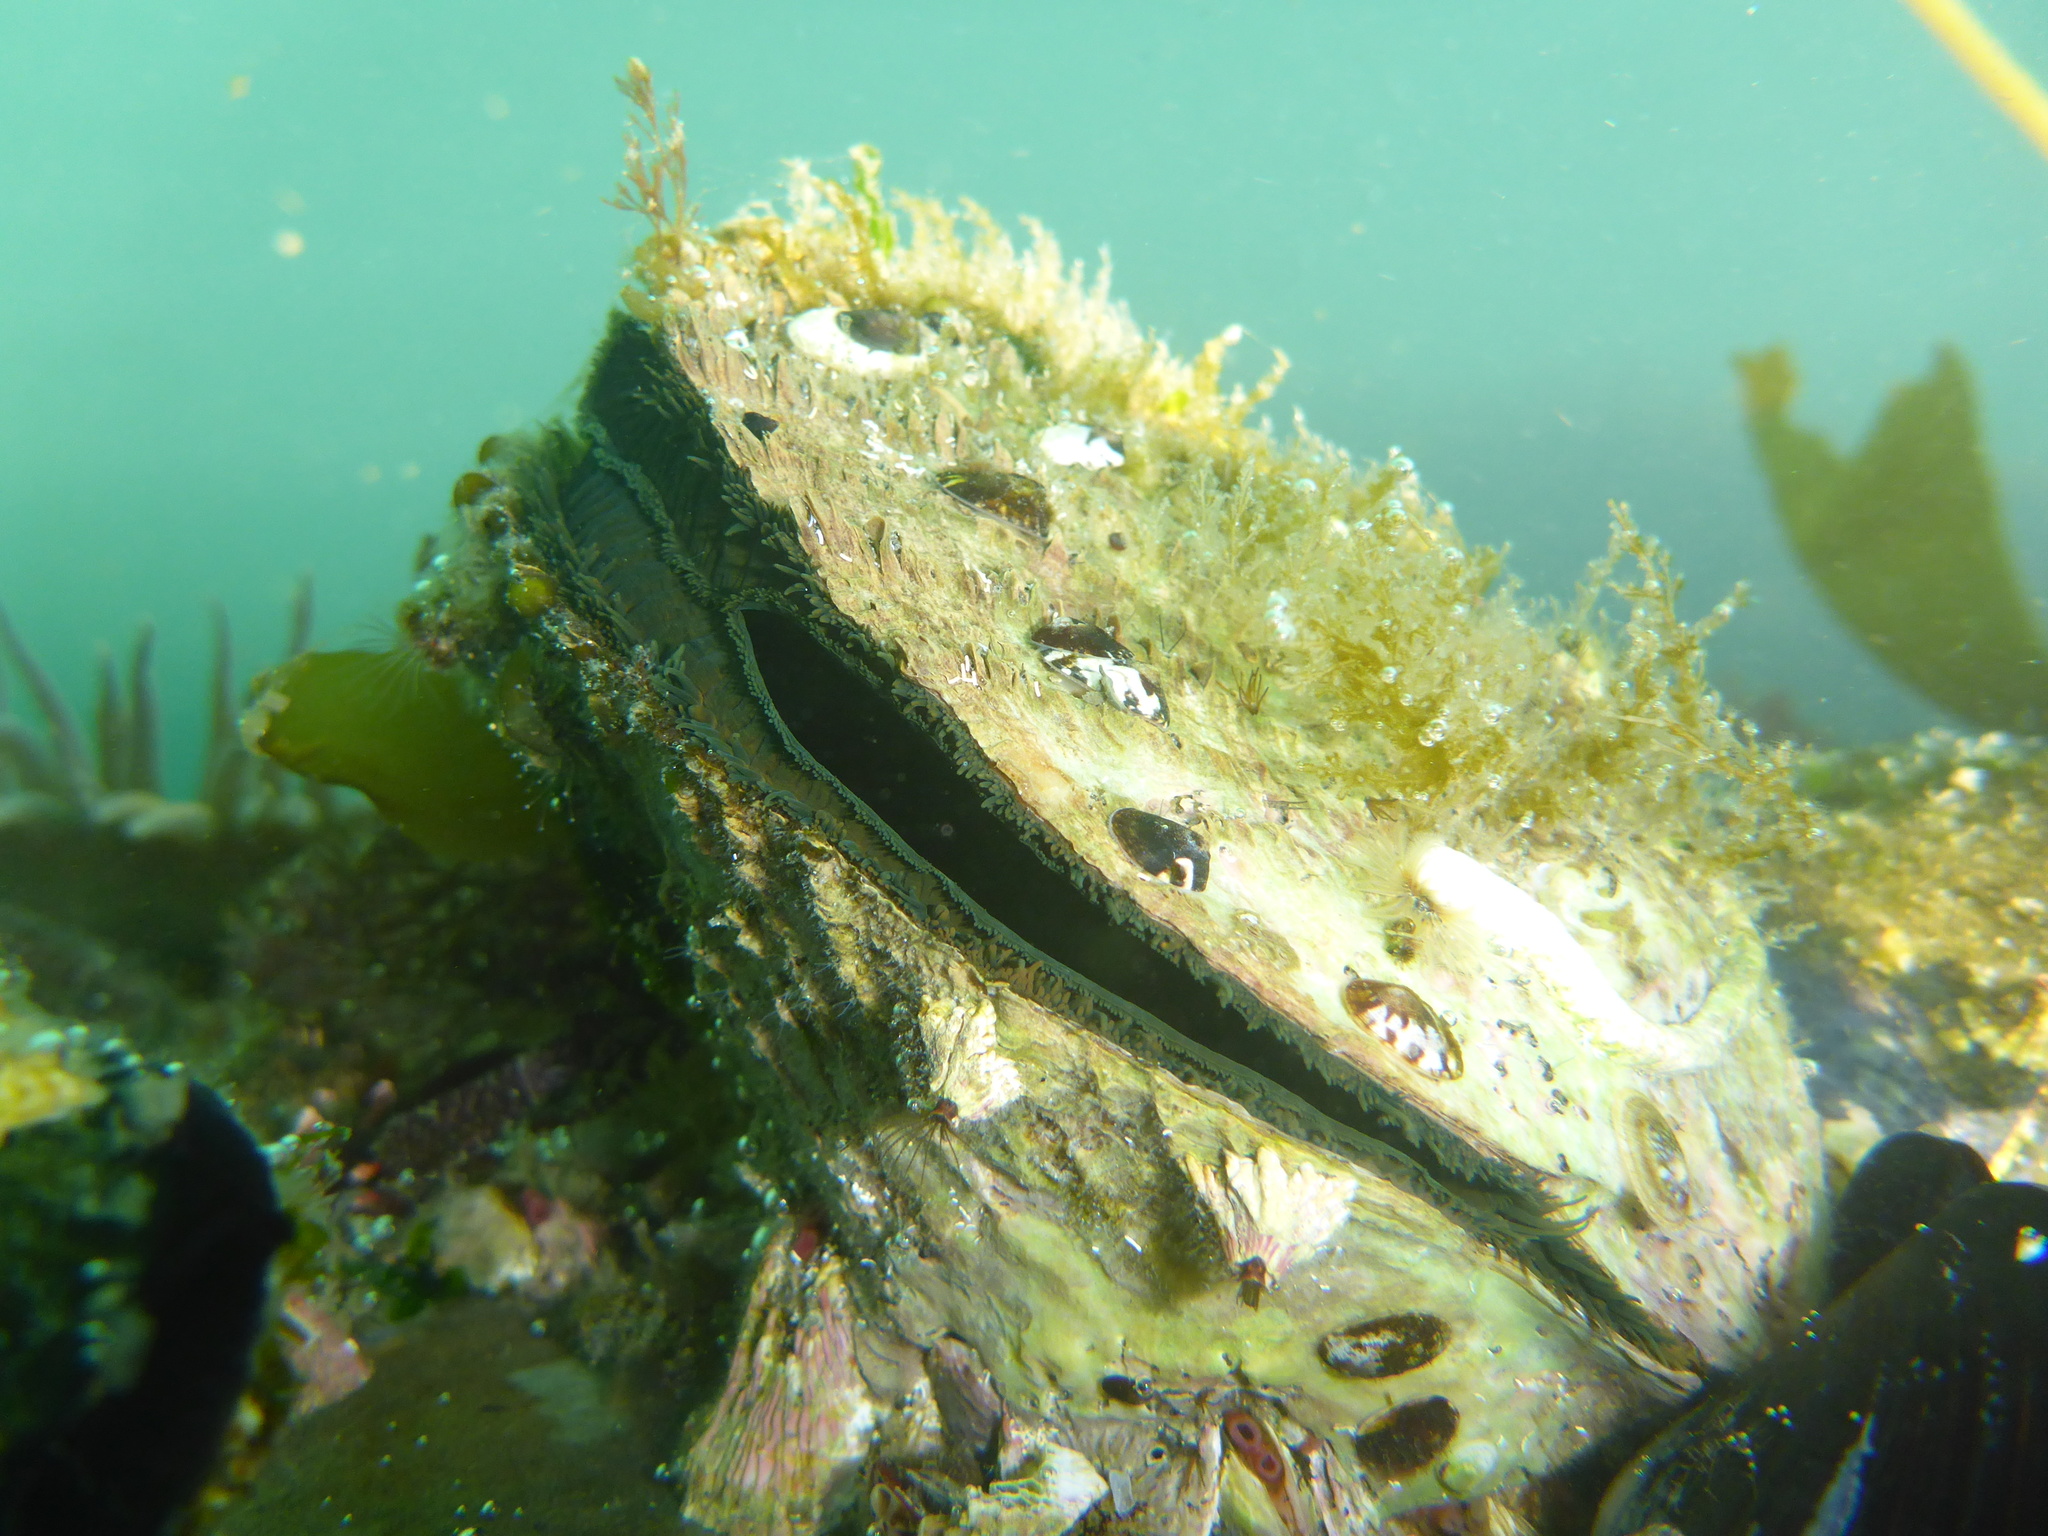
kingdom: Animalia
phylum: Mollusca
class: Bivalvia
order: Pectinida
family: Pectinidae
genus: Crassadoma
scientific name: Crassadoma gigantea
